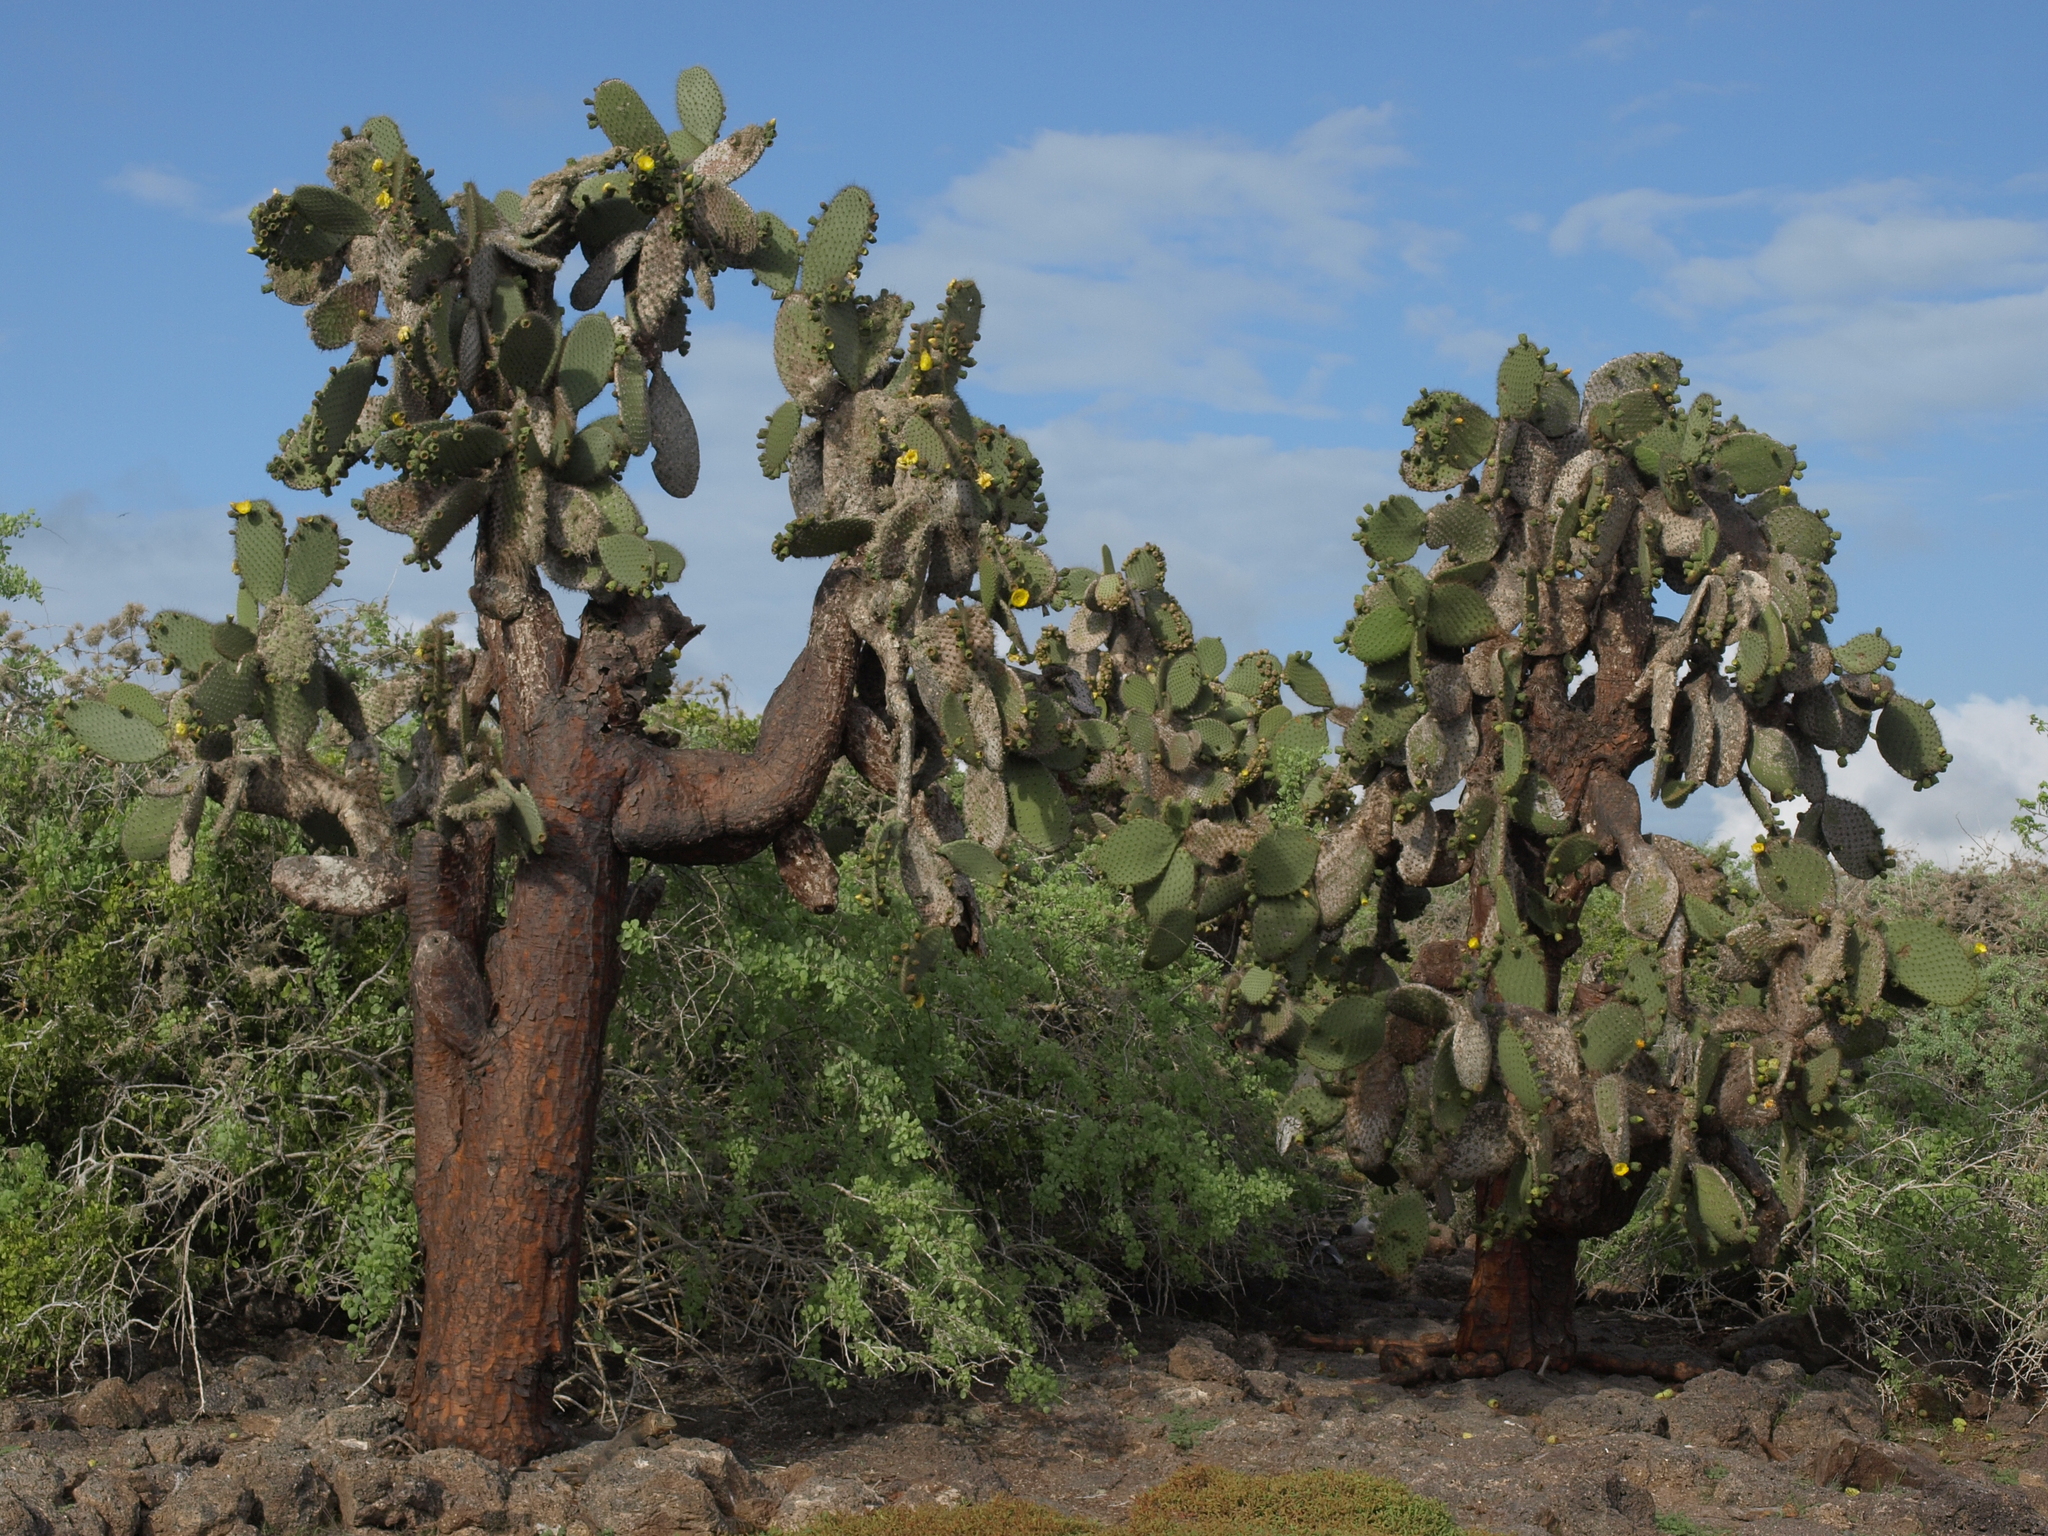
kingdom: Plantae
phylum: Tracheophyta
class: Magnoliopsida
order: Caryophyllales
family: Cactaceae
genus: Opuntia
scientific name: Opuntia galapageia
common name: Galápagos prickly pear
